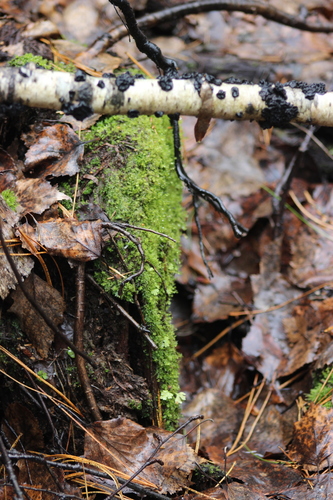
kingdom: Fungi
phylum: Basidiomycota
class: Agaricomycetes
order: Auriculariales
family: Auriculariaceae
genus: Exidia
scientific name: Exidia glandulosa
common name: Witches' butter
